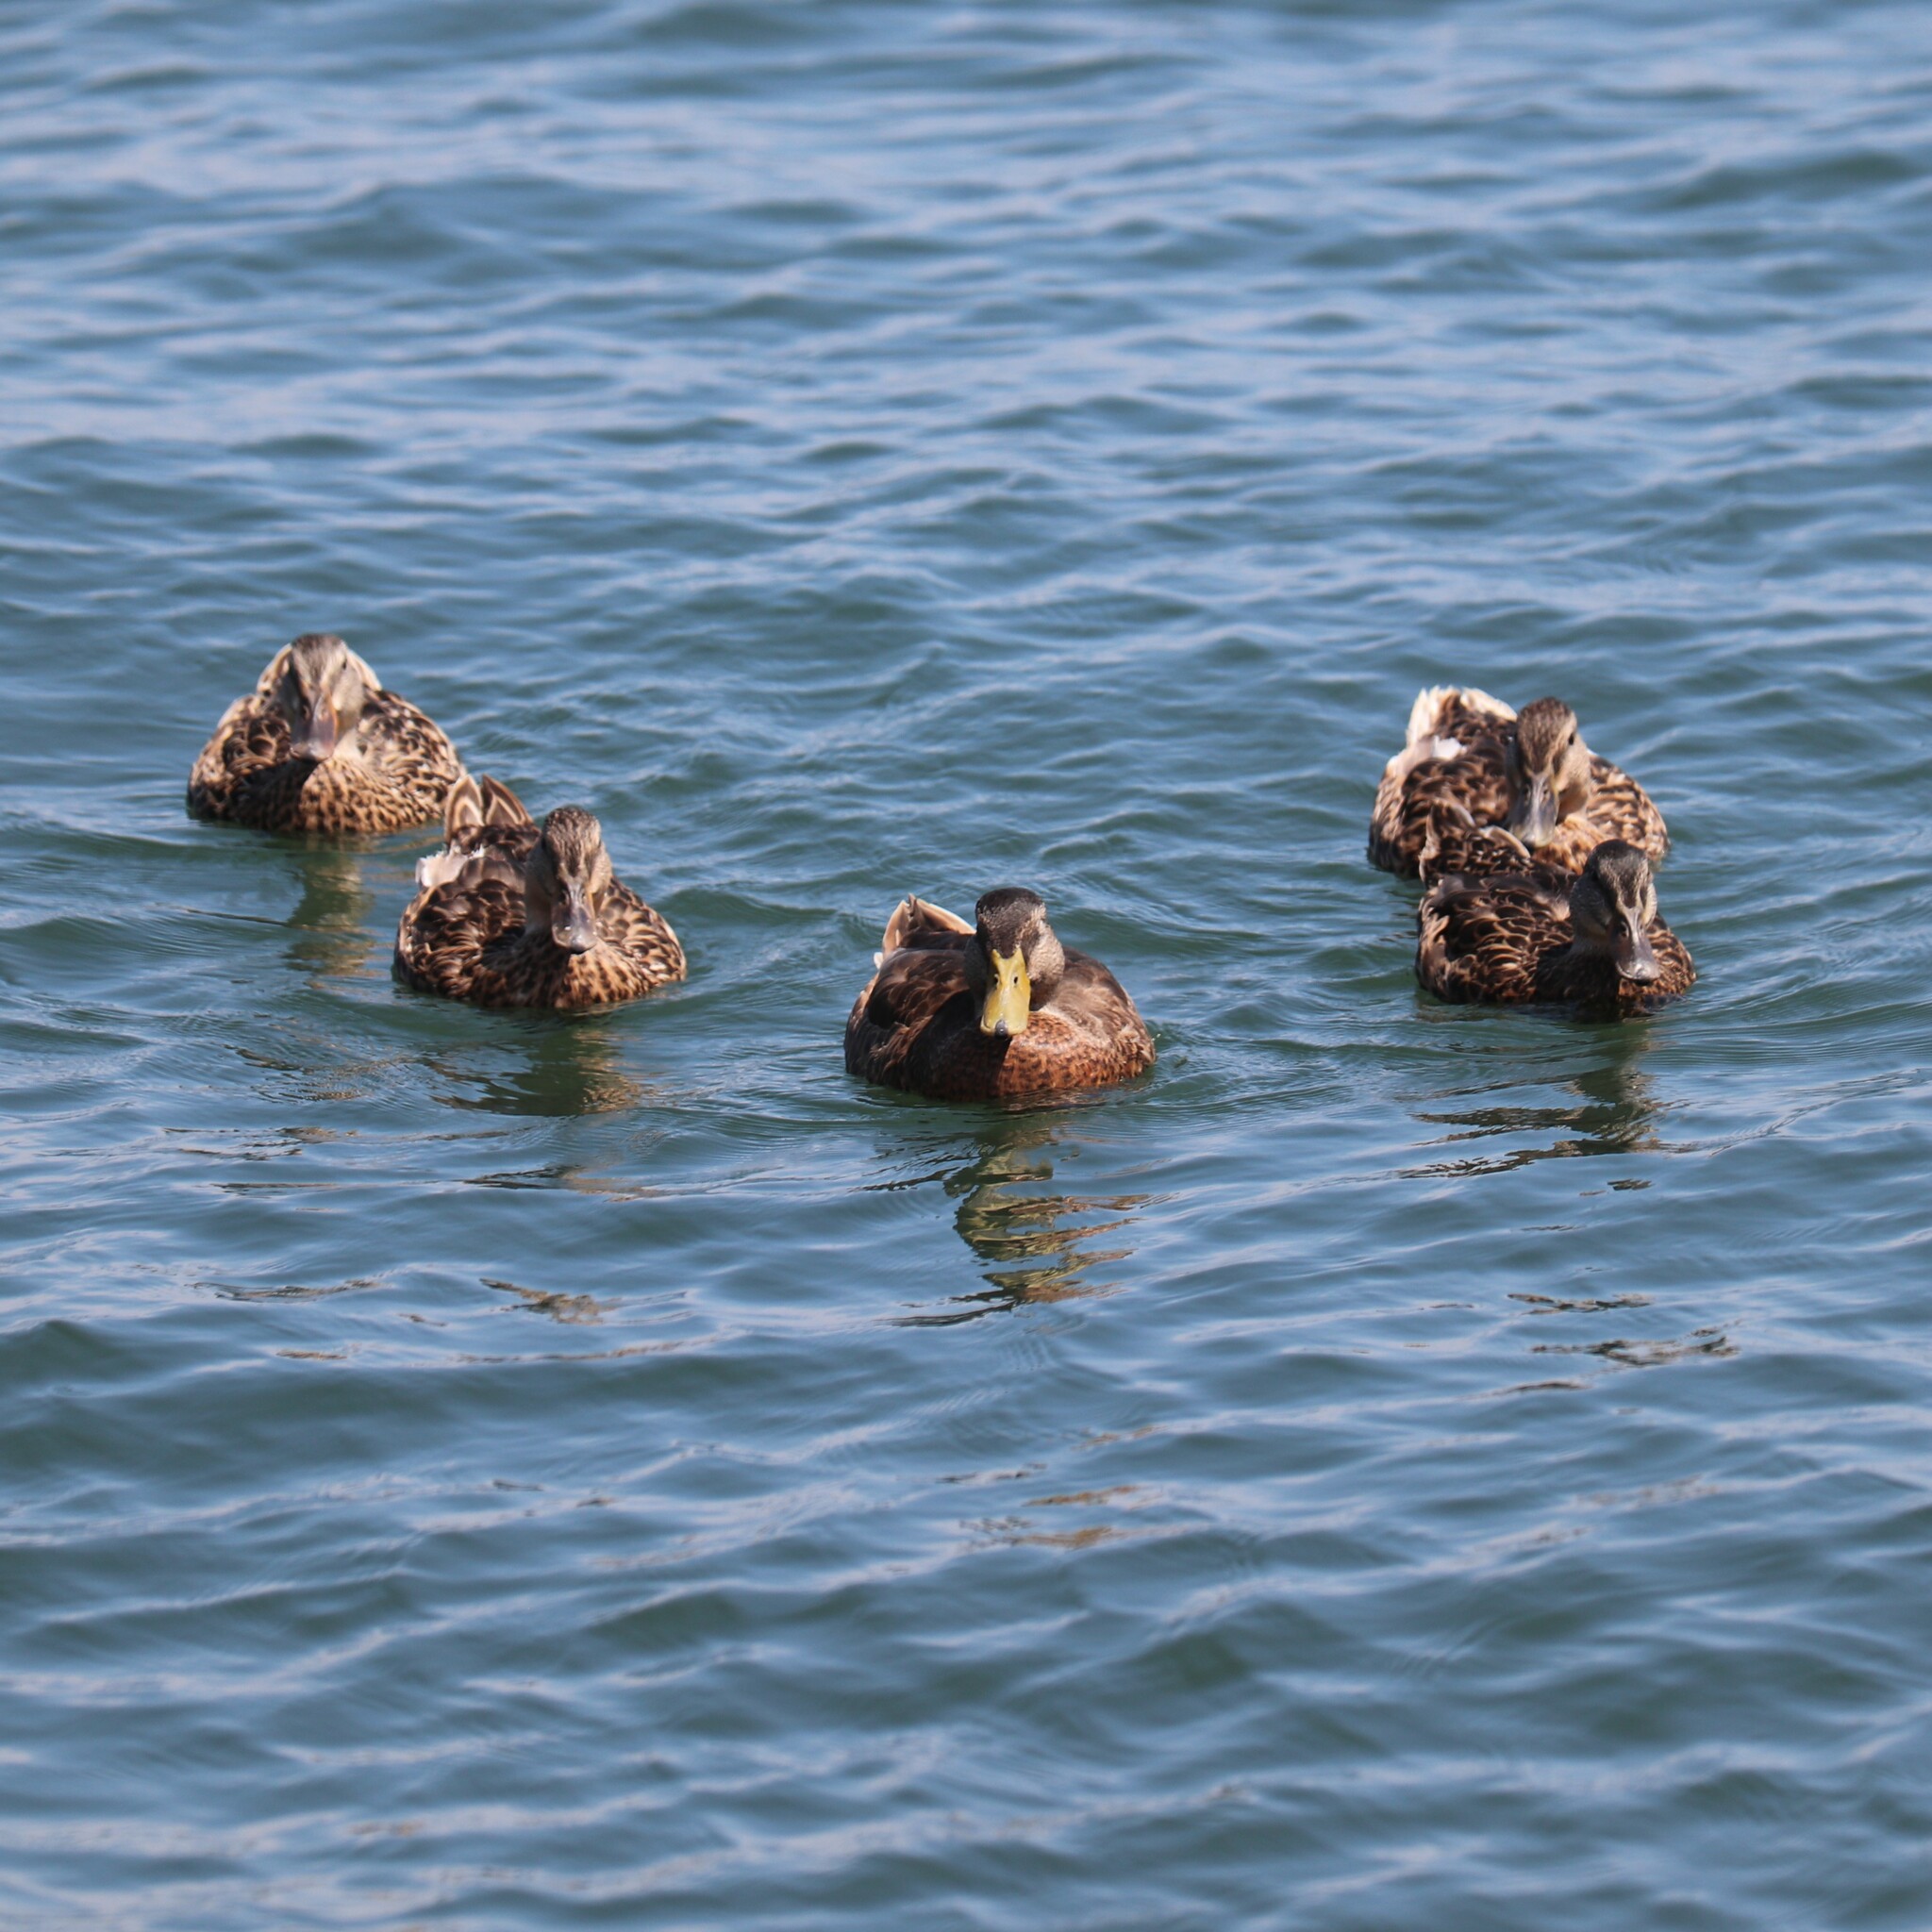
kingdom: Animalia
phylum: Chordata
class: Aves
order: Anseriformes
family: Anatidae
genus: Anas
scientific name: Anas platyrhynchos
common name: Mallard
